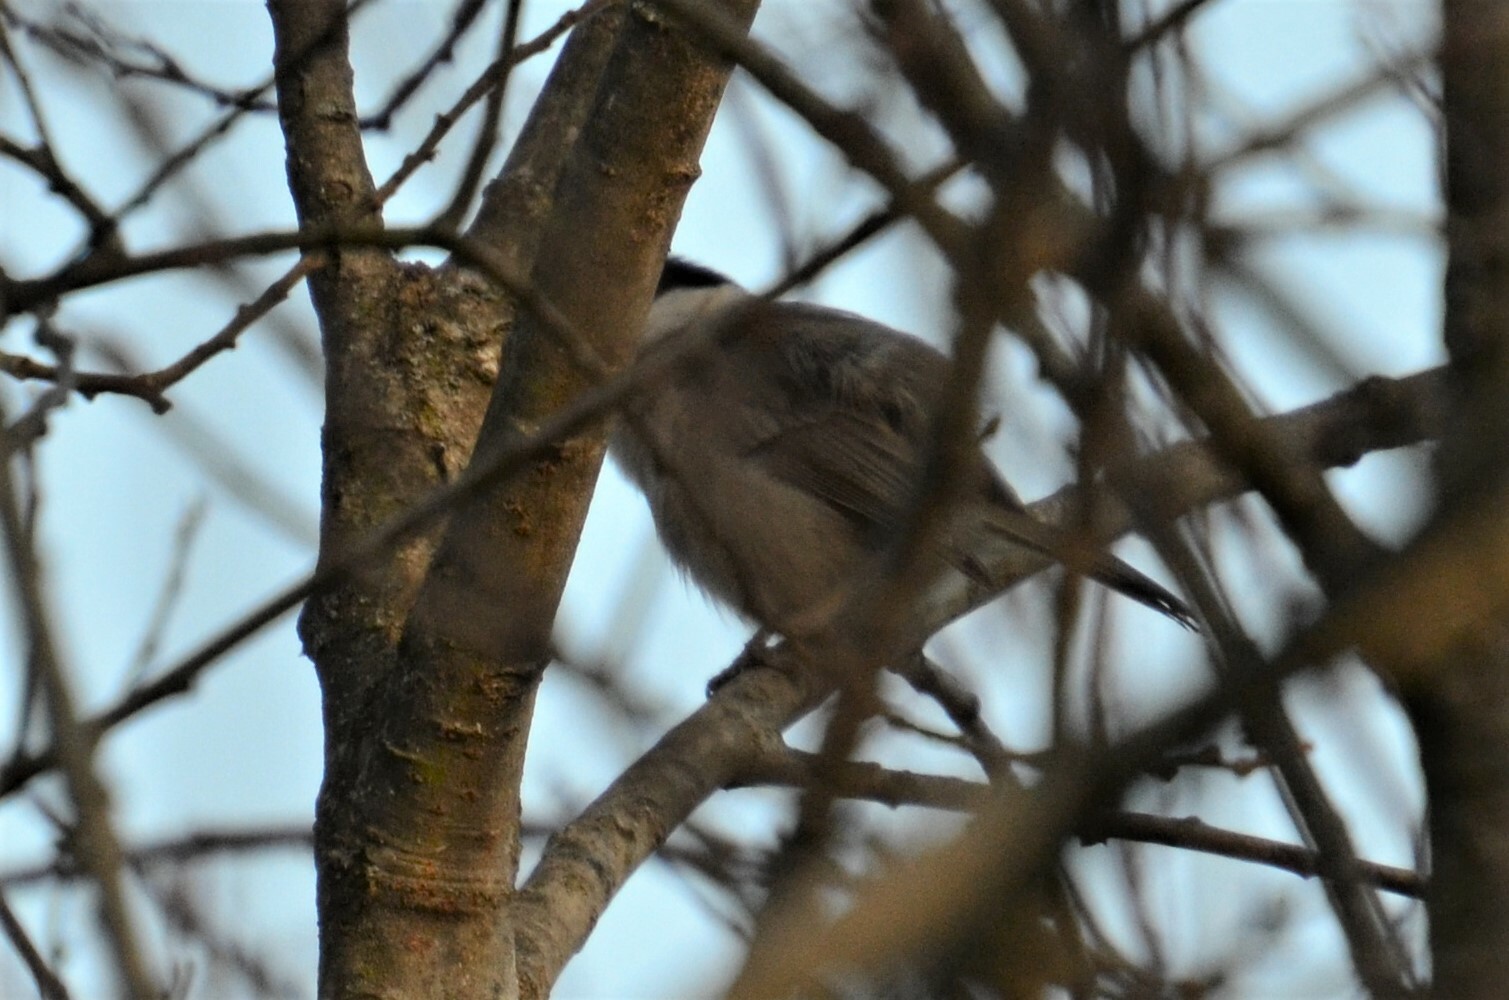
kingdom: Animalia
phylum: Chordata
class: Aves
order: Passeriformes
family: Paridae
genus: Poecile
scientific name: Poecile palustris
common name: Marsh tit
